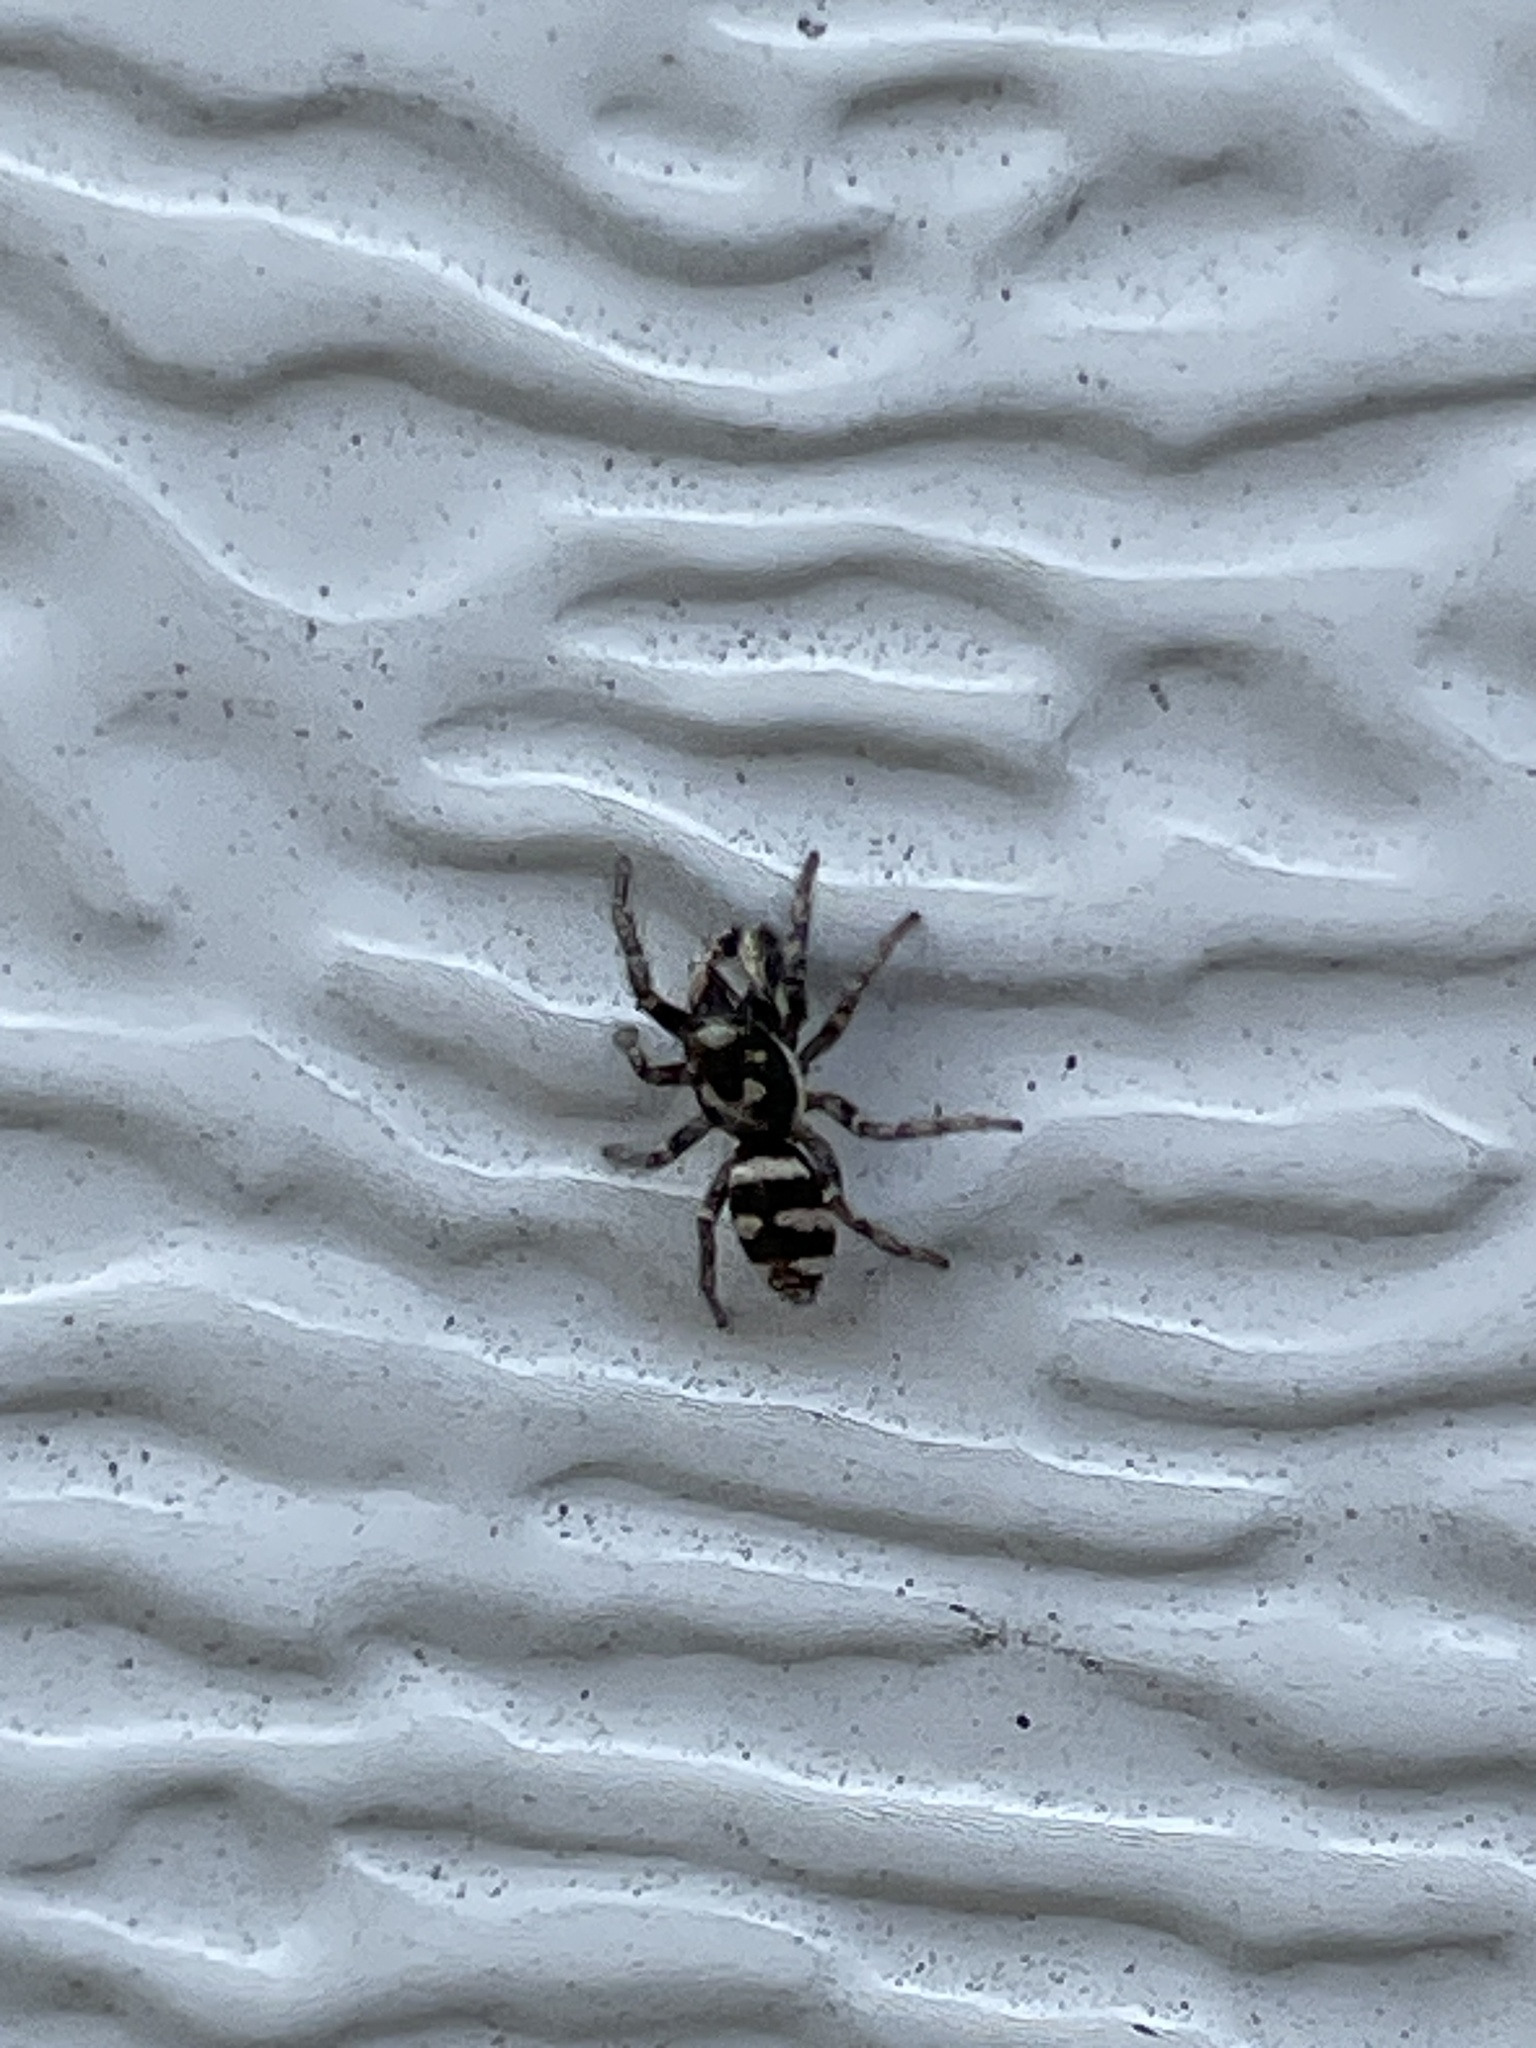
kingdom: Animalia
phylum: Arthropoda
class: Arachnida
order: Araneae
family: Salticidae
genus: Salticus
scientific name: Salticus scenicus
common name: Zebra jumper
